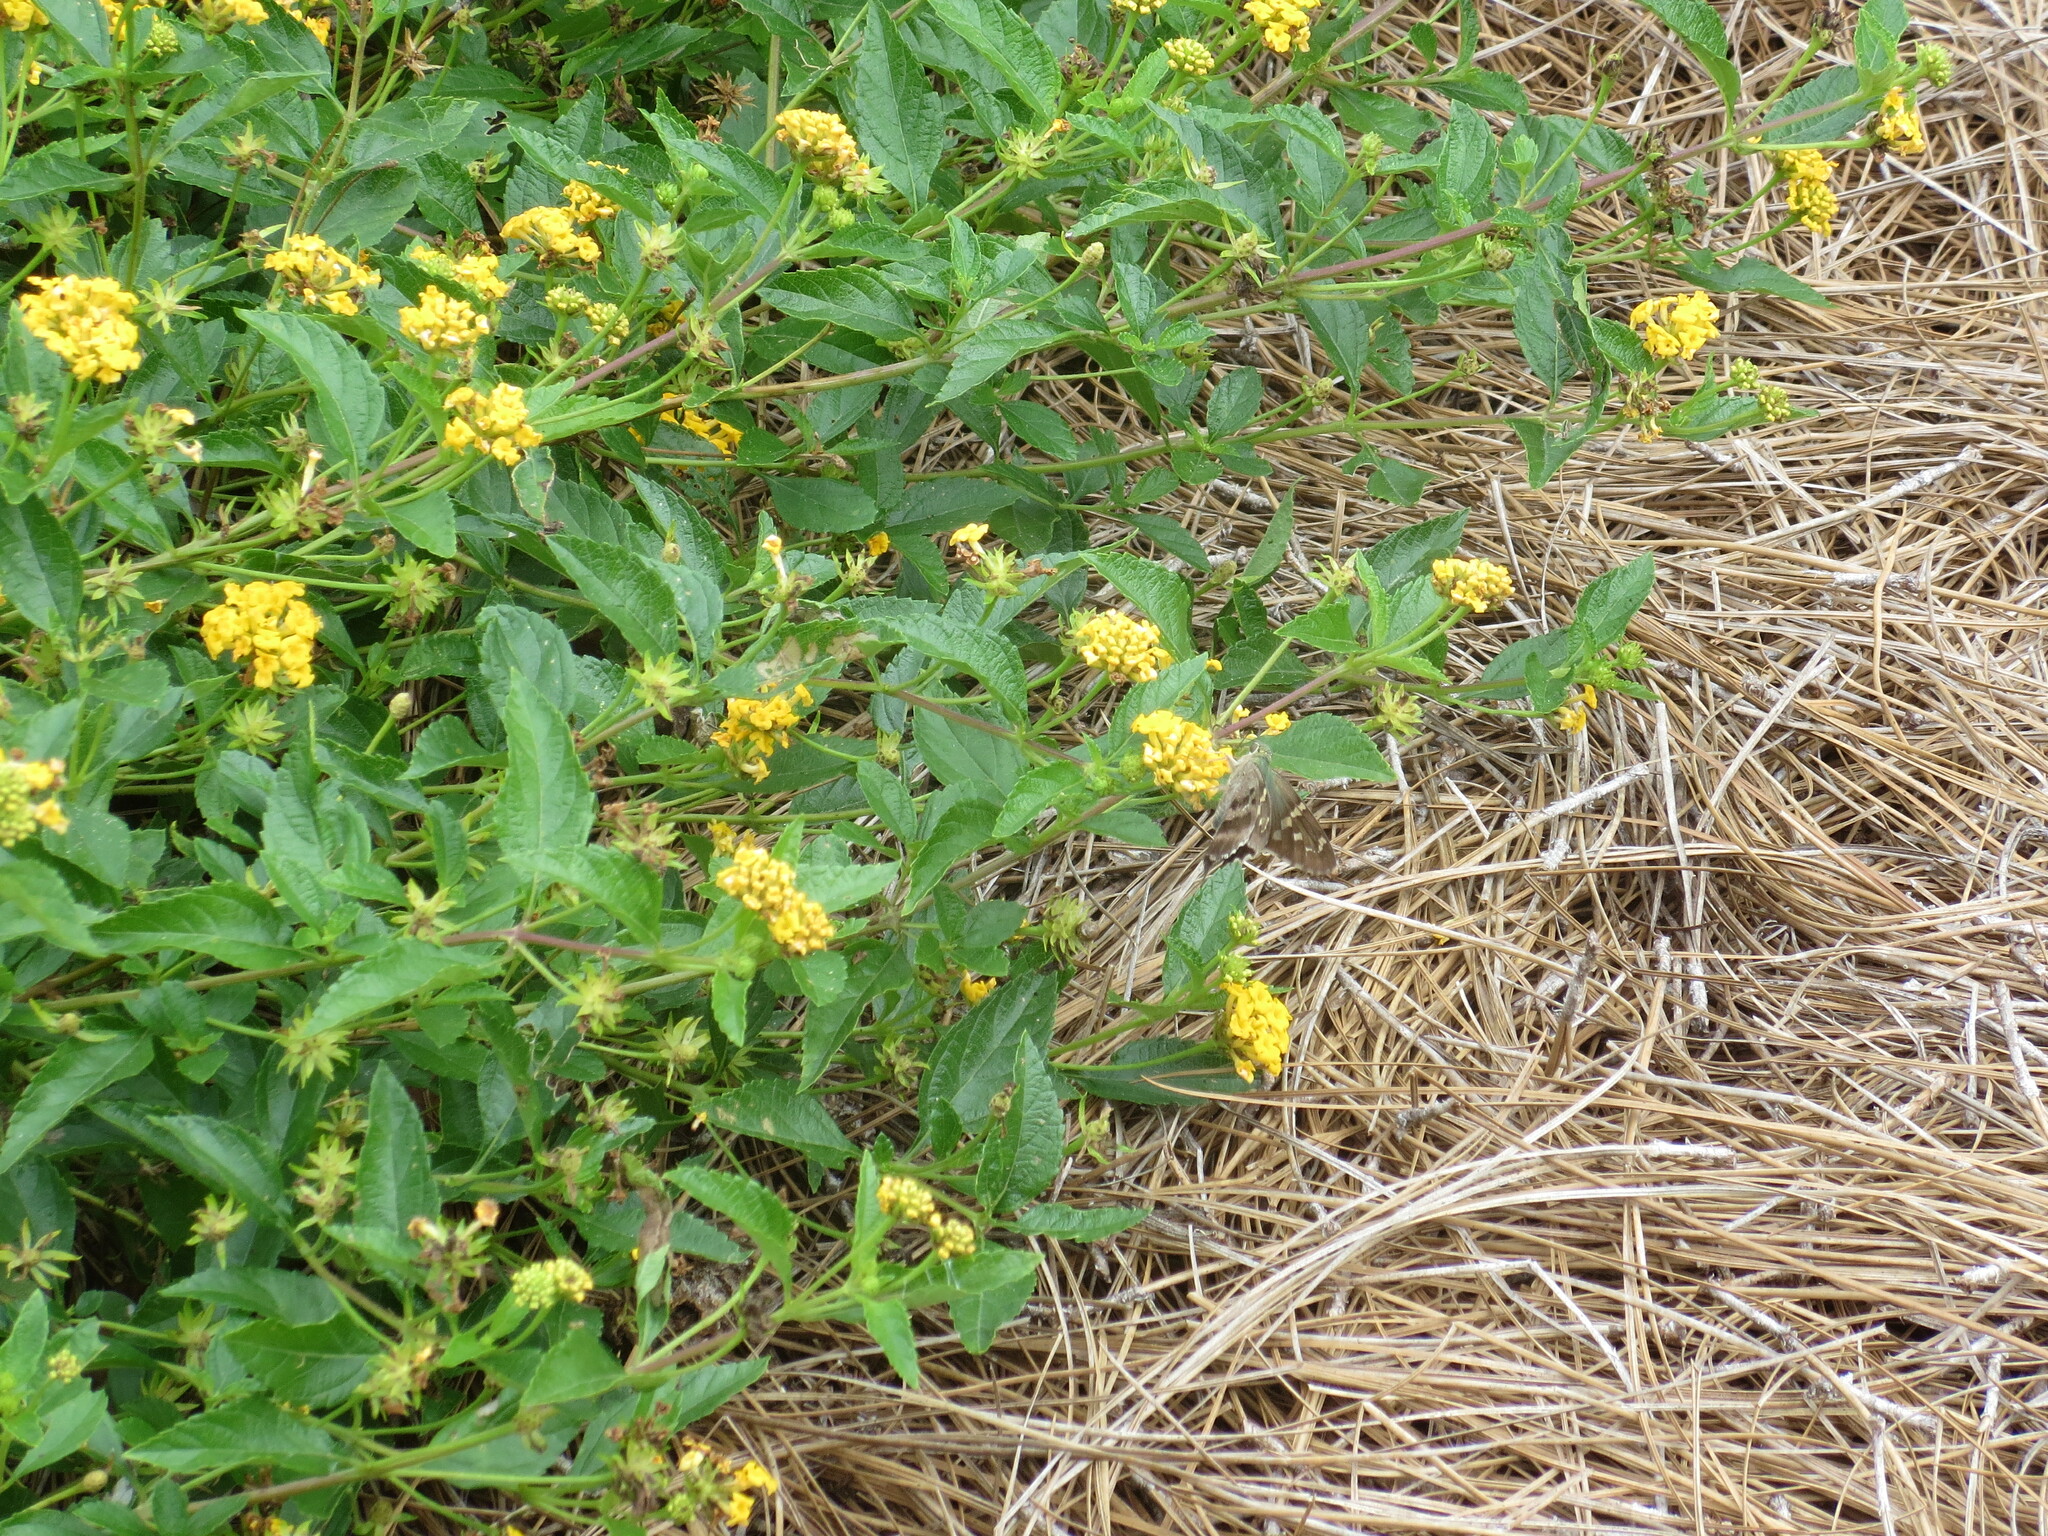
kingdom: Animalia
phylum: Arthropoda
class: Insecta
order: Lepidoptera
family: Hesperiidae
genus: Urbanus
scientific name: Urbanus proteus
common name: Long-tailed skipper
